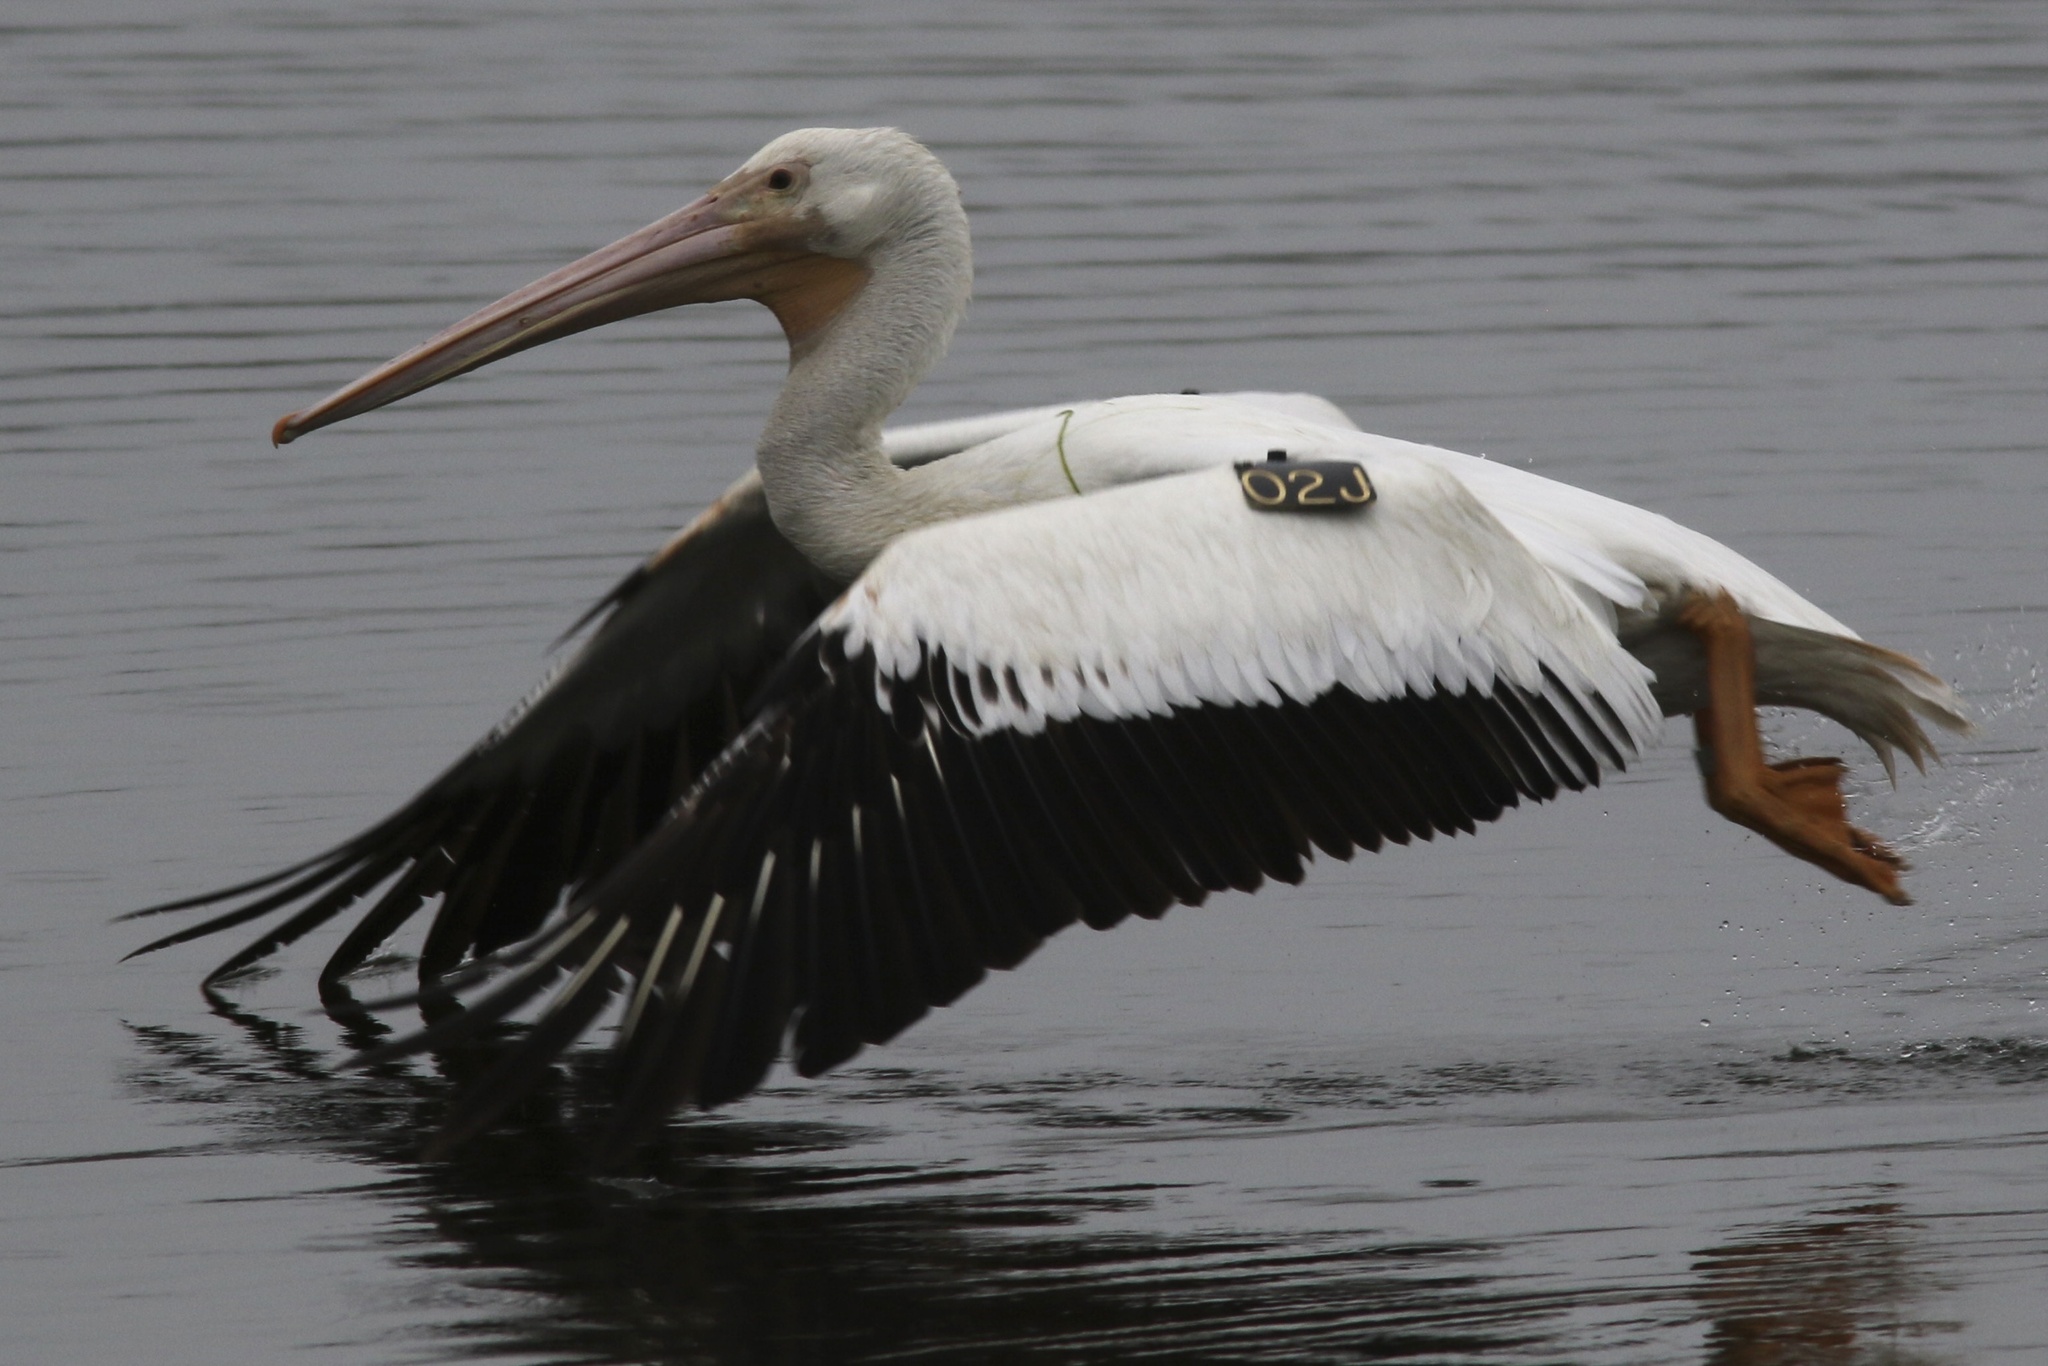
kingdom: Animalia
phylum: Chordata
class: Aves
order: Pelecaniformes
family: Pelecanidae
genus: Pelecanus
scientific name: Pelecanus erythrorhynchos
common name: American white pelican
